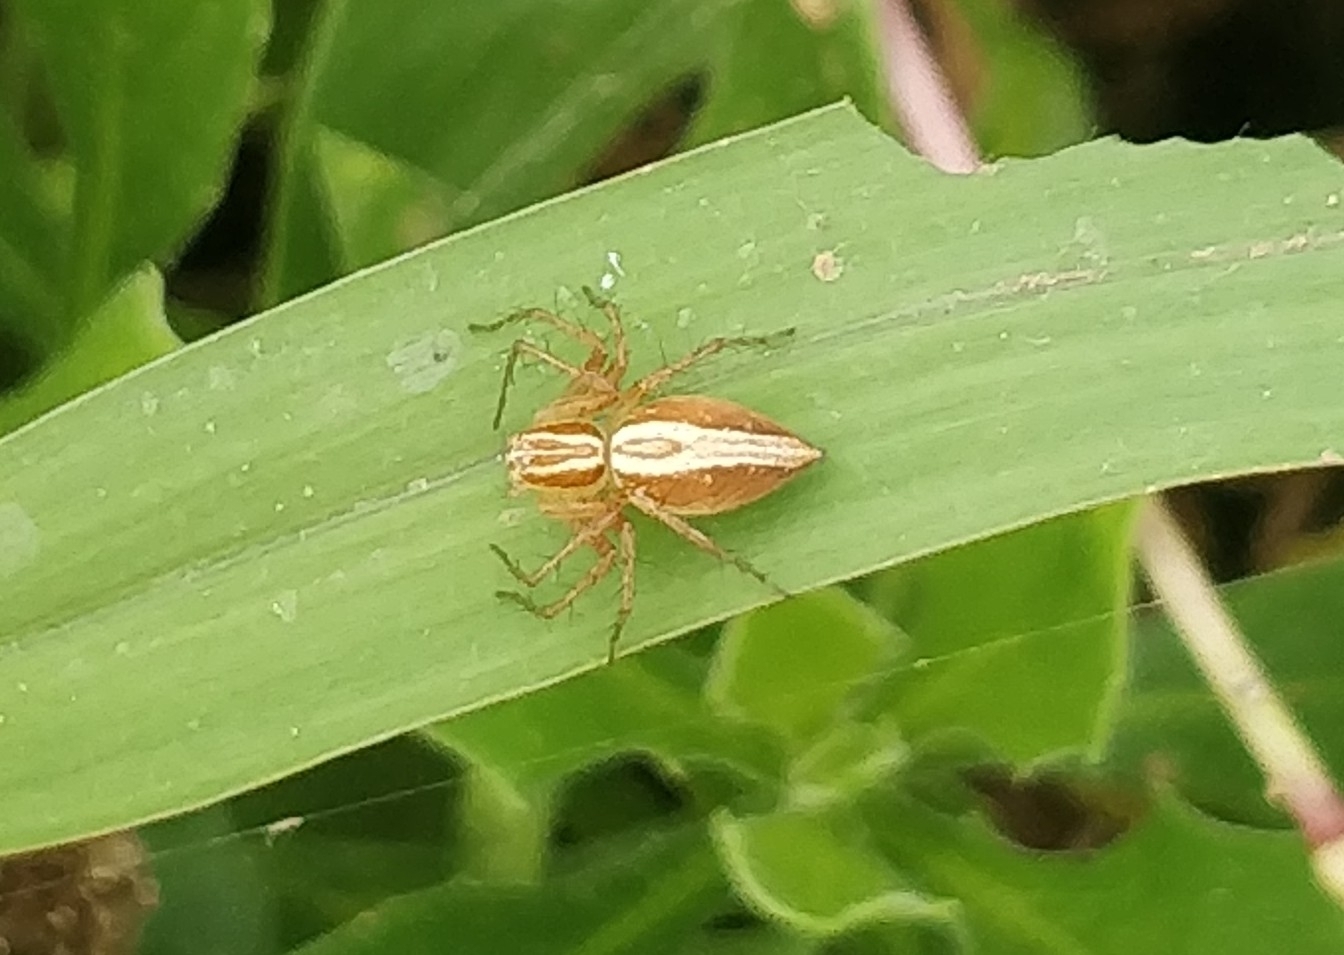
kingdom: Animalia
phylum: Arthropoda
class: Arachnida
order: Araneae
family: Oxyopidae
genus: Oxyopes
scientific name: Oxyopes kraepelinorum
